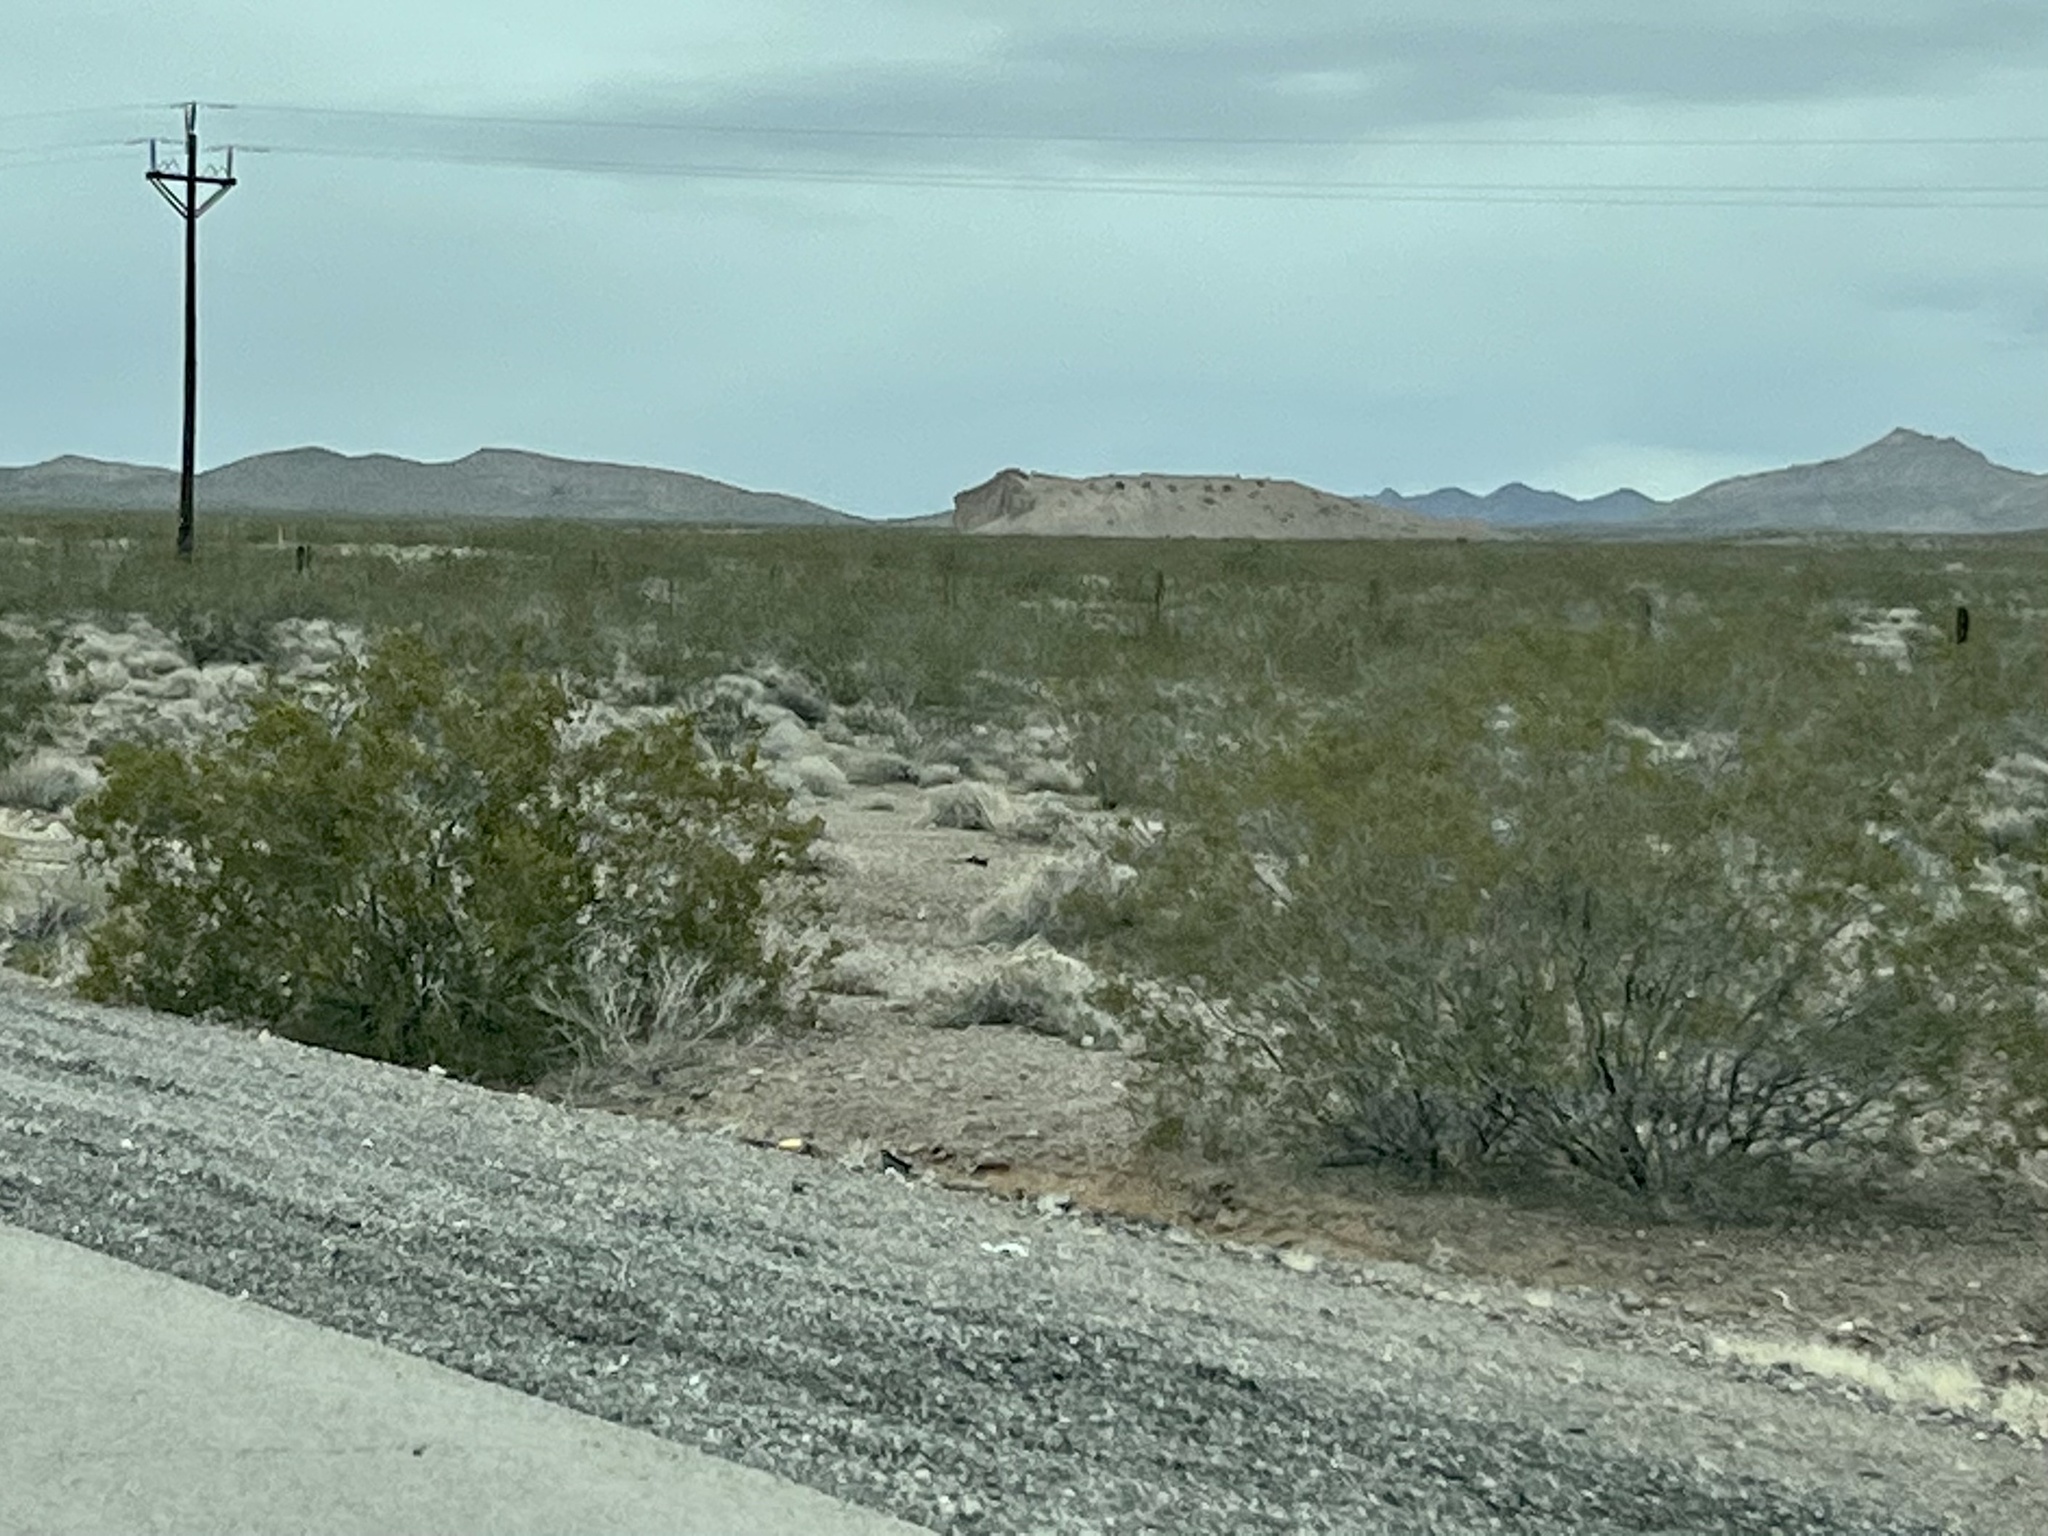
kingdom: Plantae
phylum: Tracheophyta
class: Magnoliopsida
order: Zygophyllales
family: Zygophyllaceae
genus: Larrea
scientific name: Larrea tridentata
